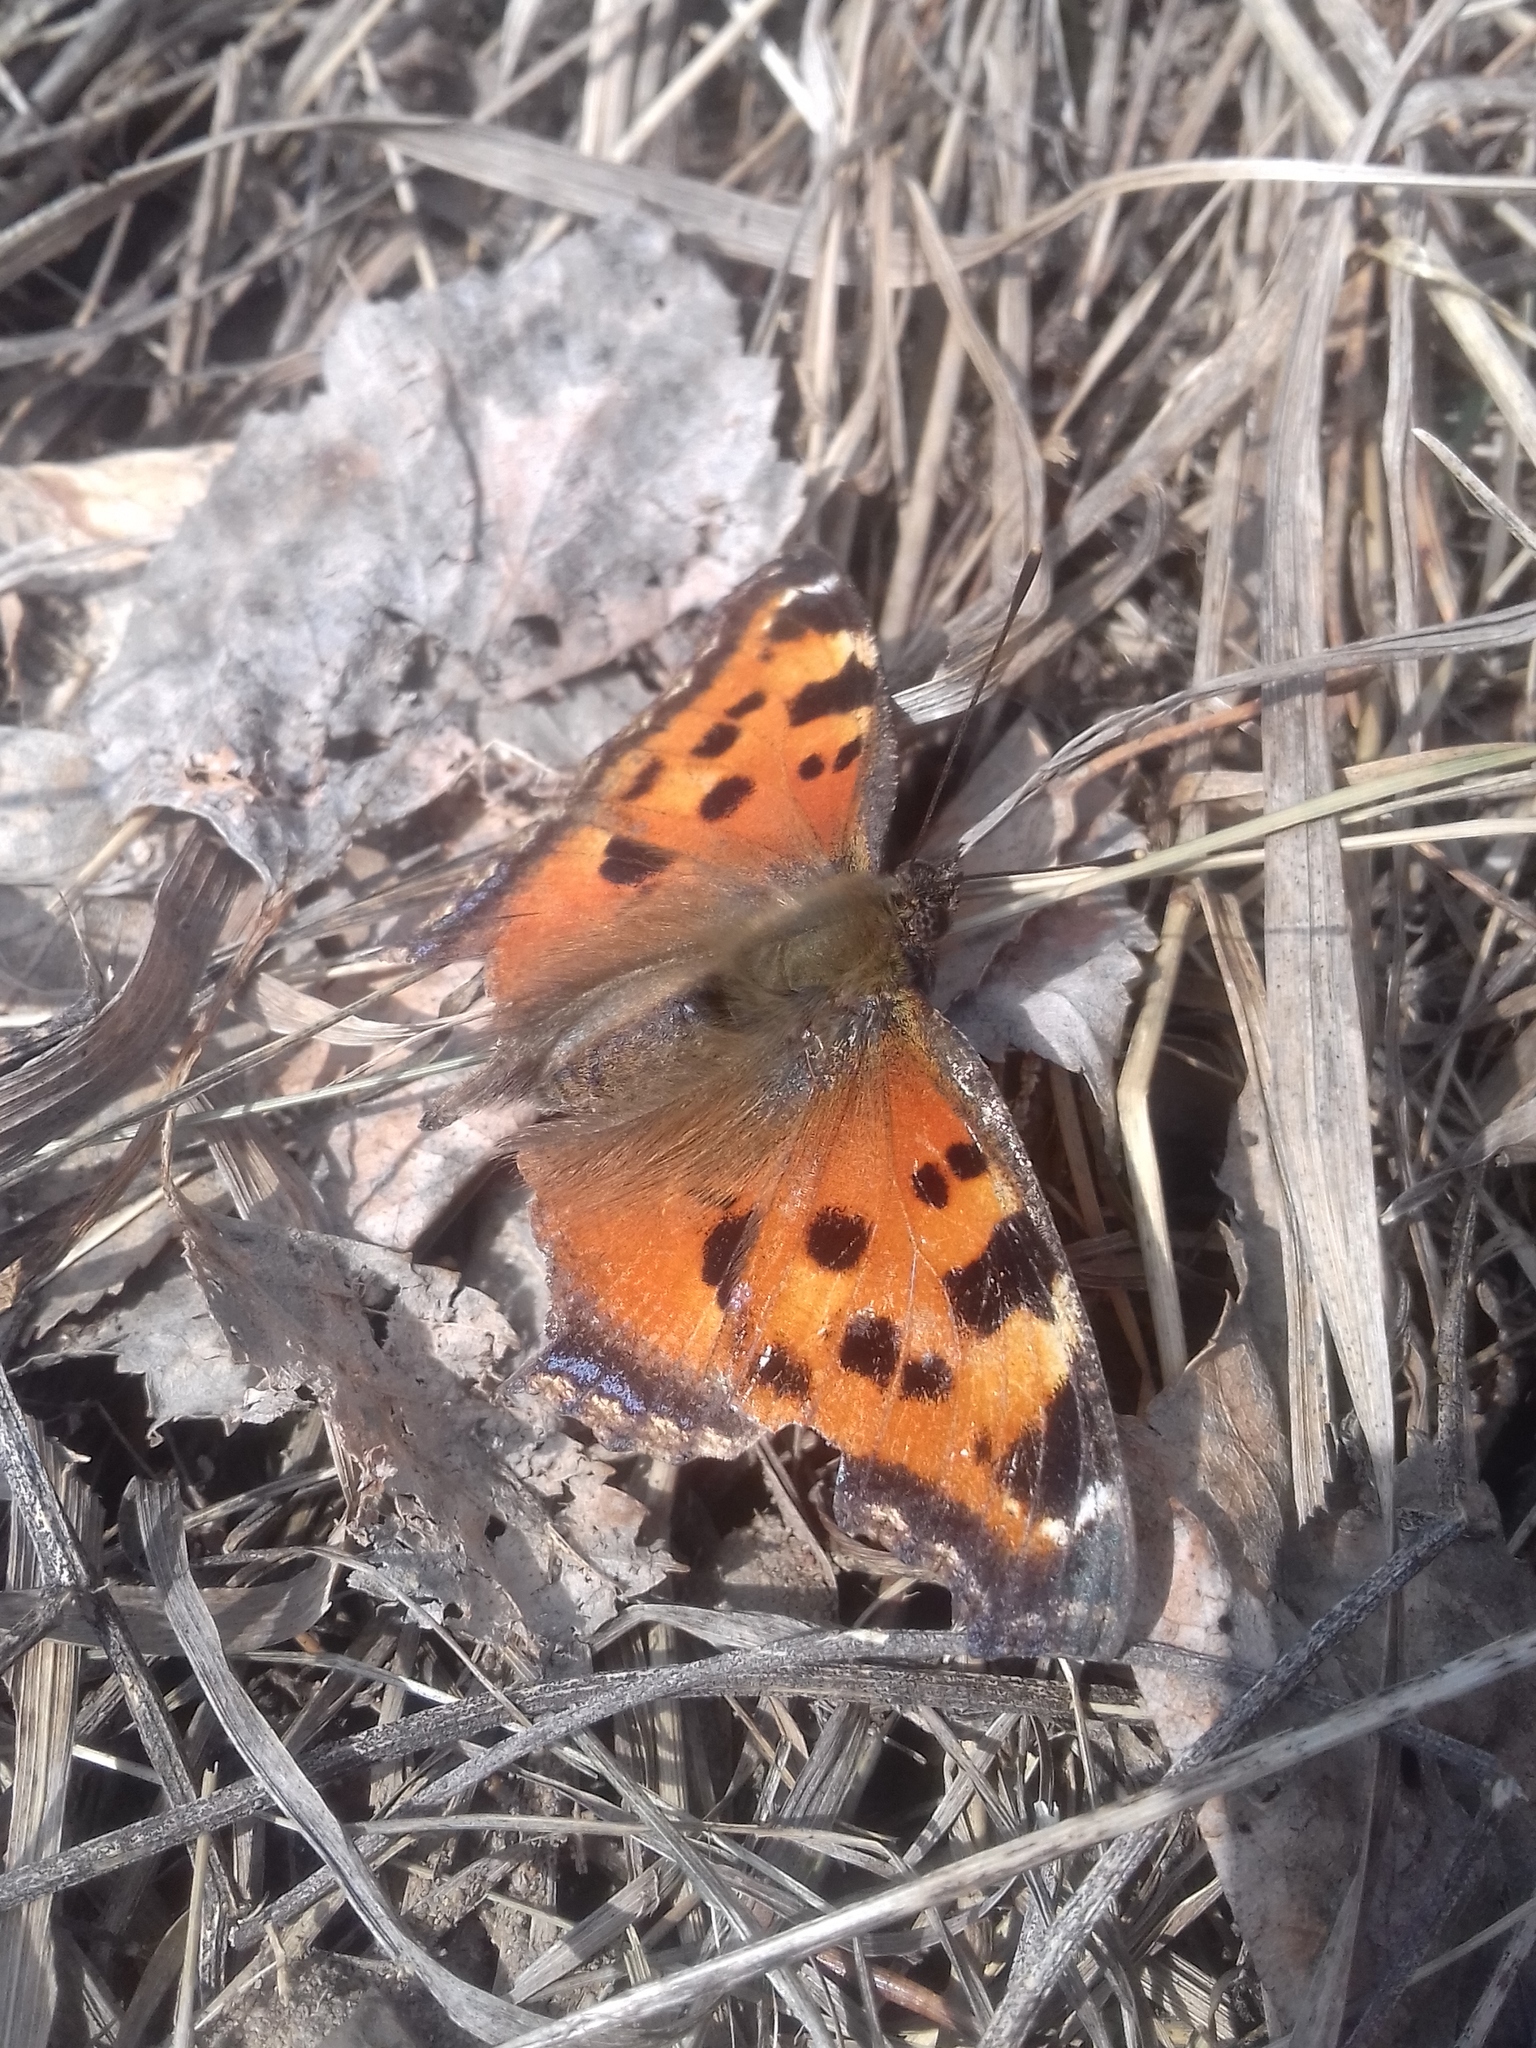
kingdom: Animalia
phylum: Arthropoda
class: Insecta
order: Lepidoptera
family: Nymphalidae
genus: Nymphalis
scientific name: Nymphalis xanthomelas
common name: Scarce tortoiseshell
